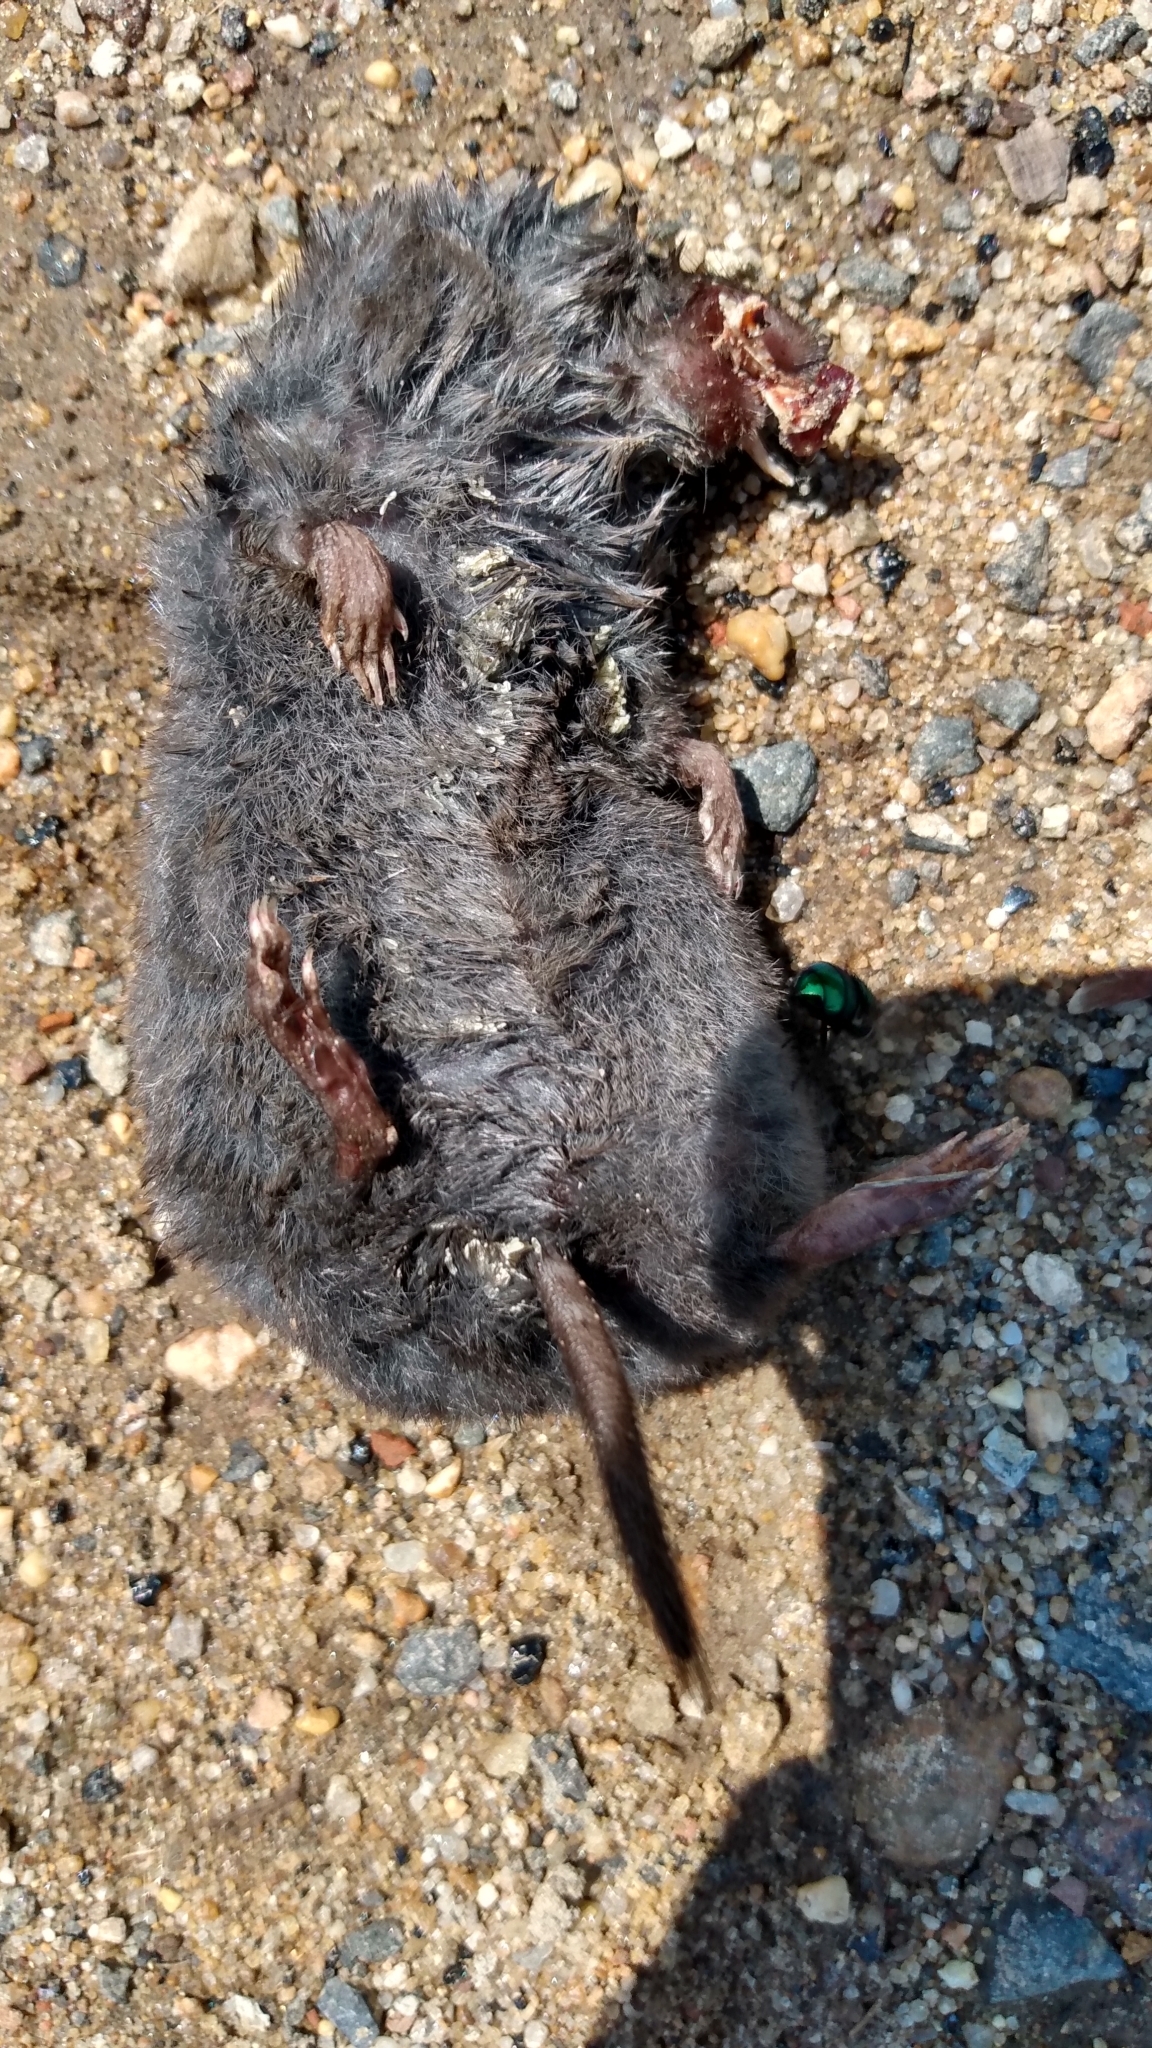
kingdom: Animalia
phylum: Chordata
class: Mammalia
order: Soricomorpha
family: Soricidae
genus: Blarina
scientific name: Blarina brevicauda
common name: Northern short-tailed shrew
